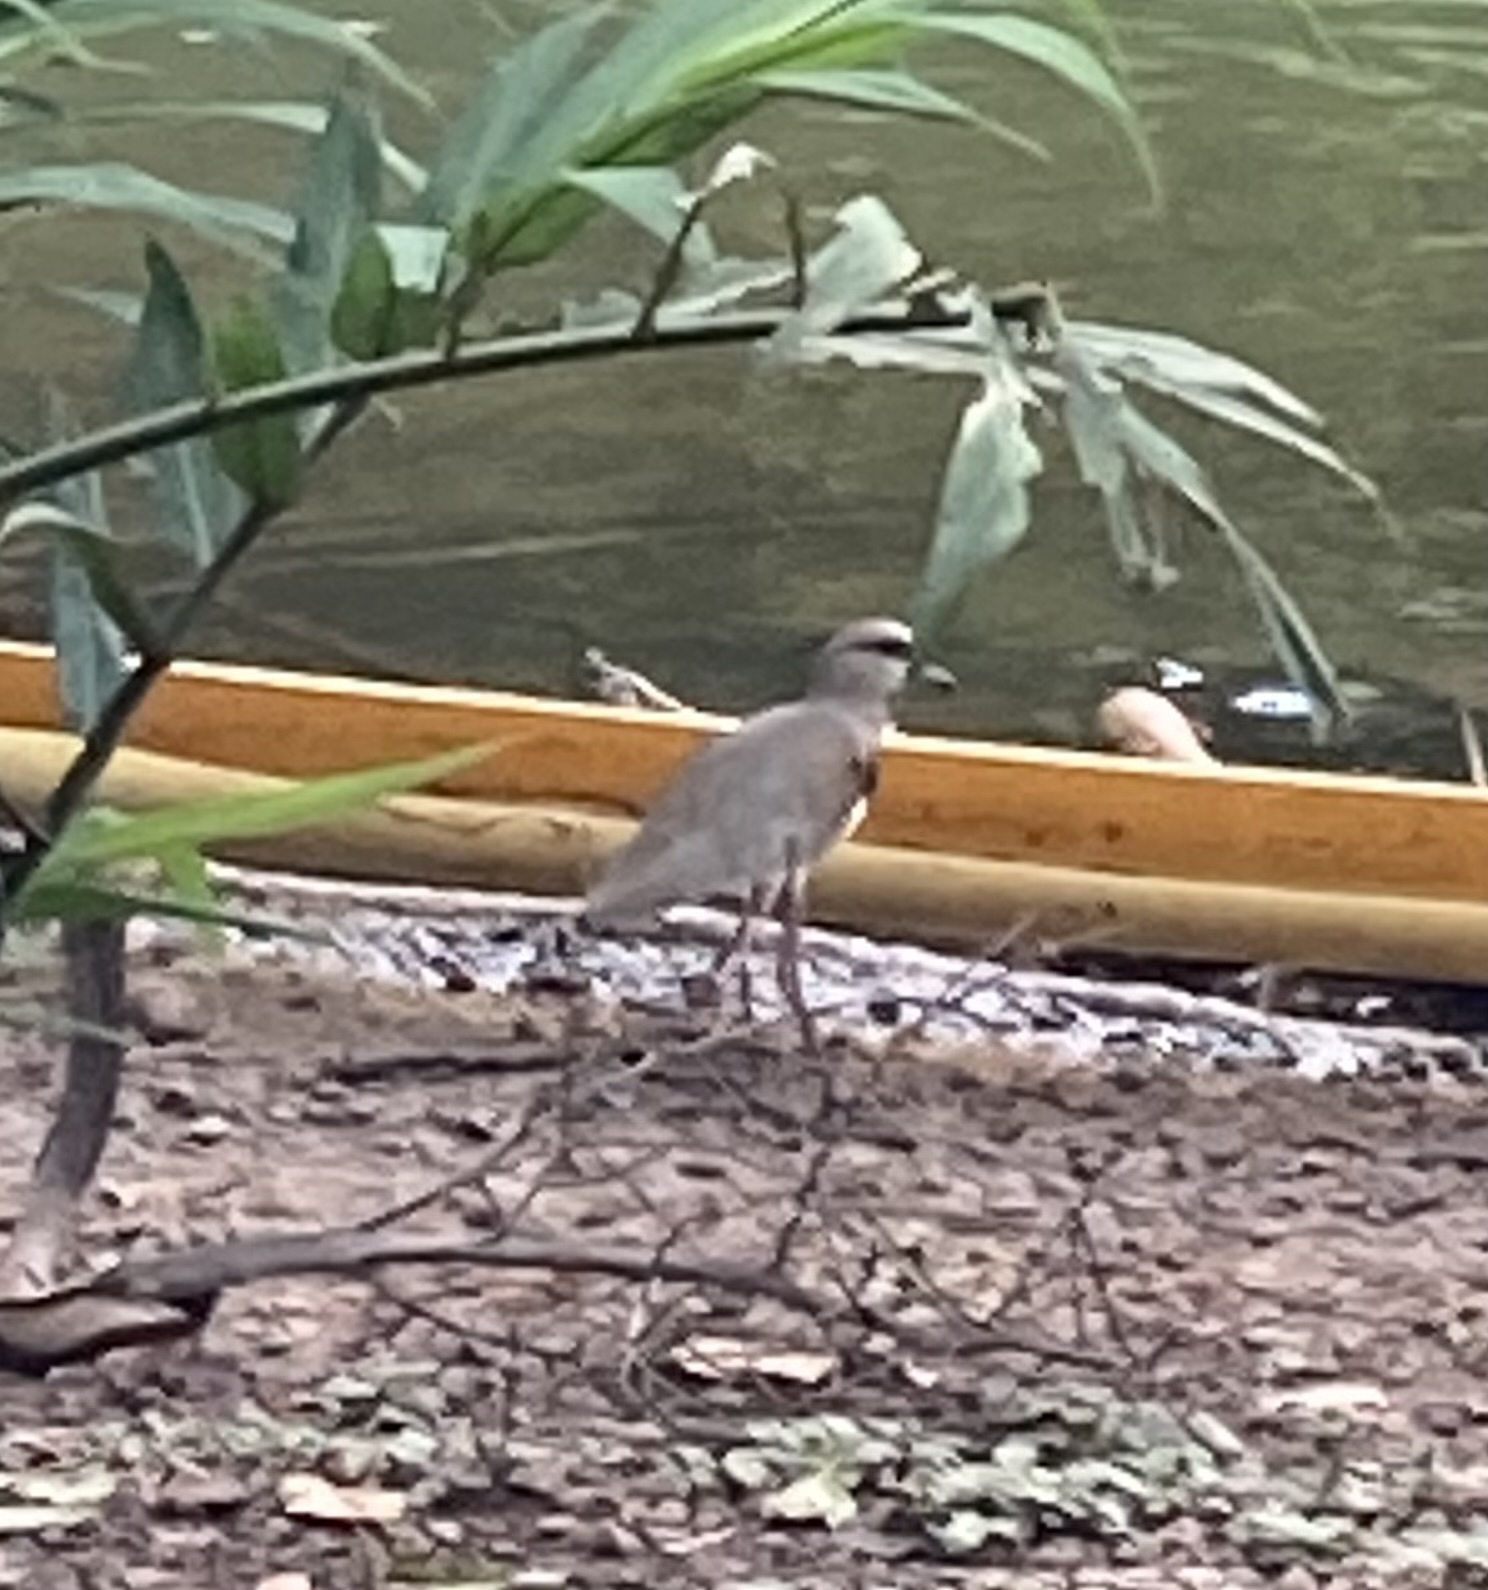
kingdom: Animalia
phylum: Chordata
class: Aves
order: Charadriiformes
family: Charadriidae
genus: Vanellus
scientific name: Vanellus chilensis
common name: Southern lapwing
